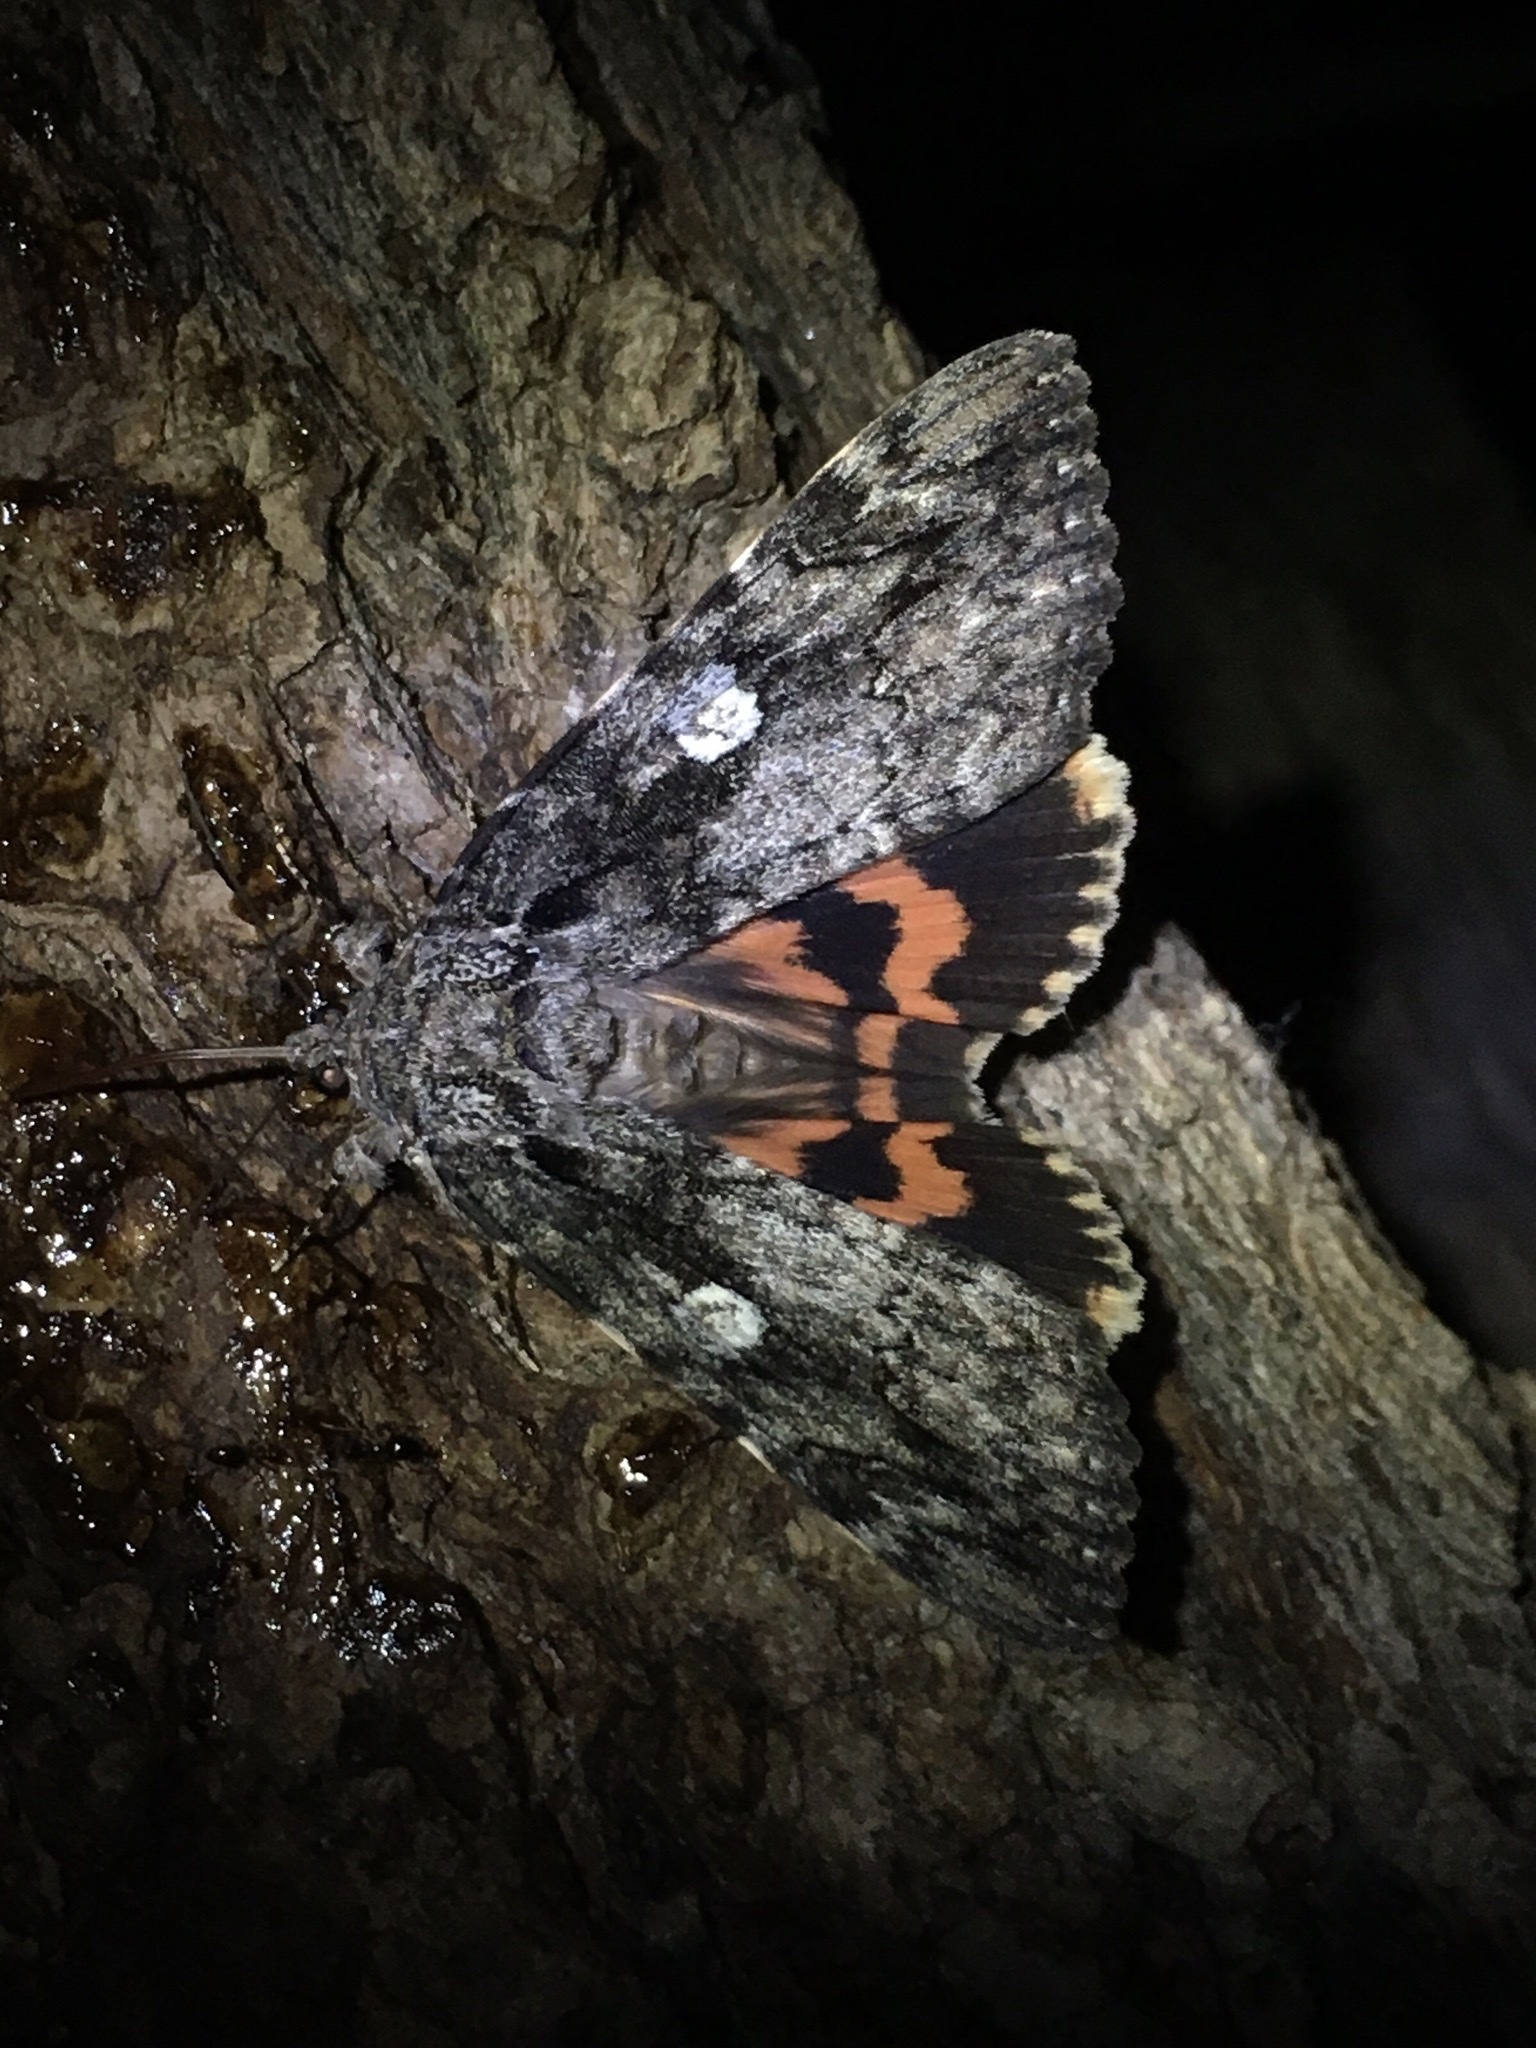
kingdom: Animalia
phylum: Arthropoda
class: Insecta
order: Lepidoptera
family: Erebidae
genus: Catocala
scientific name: Catocala ilia
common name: Ilia underwing
